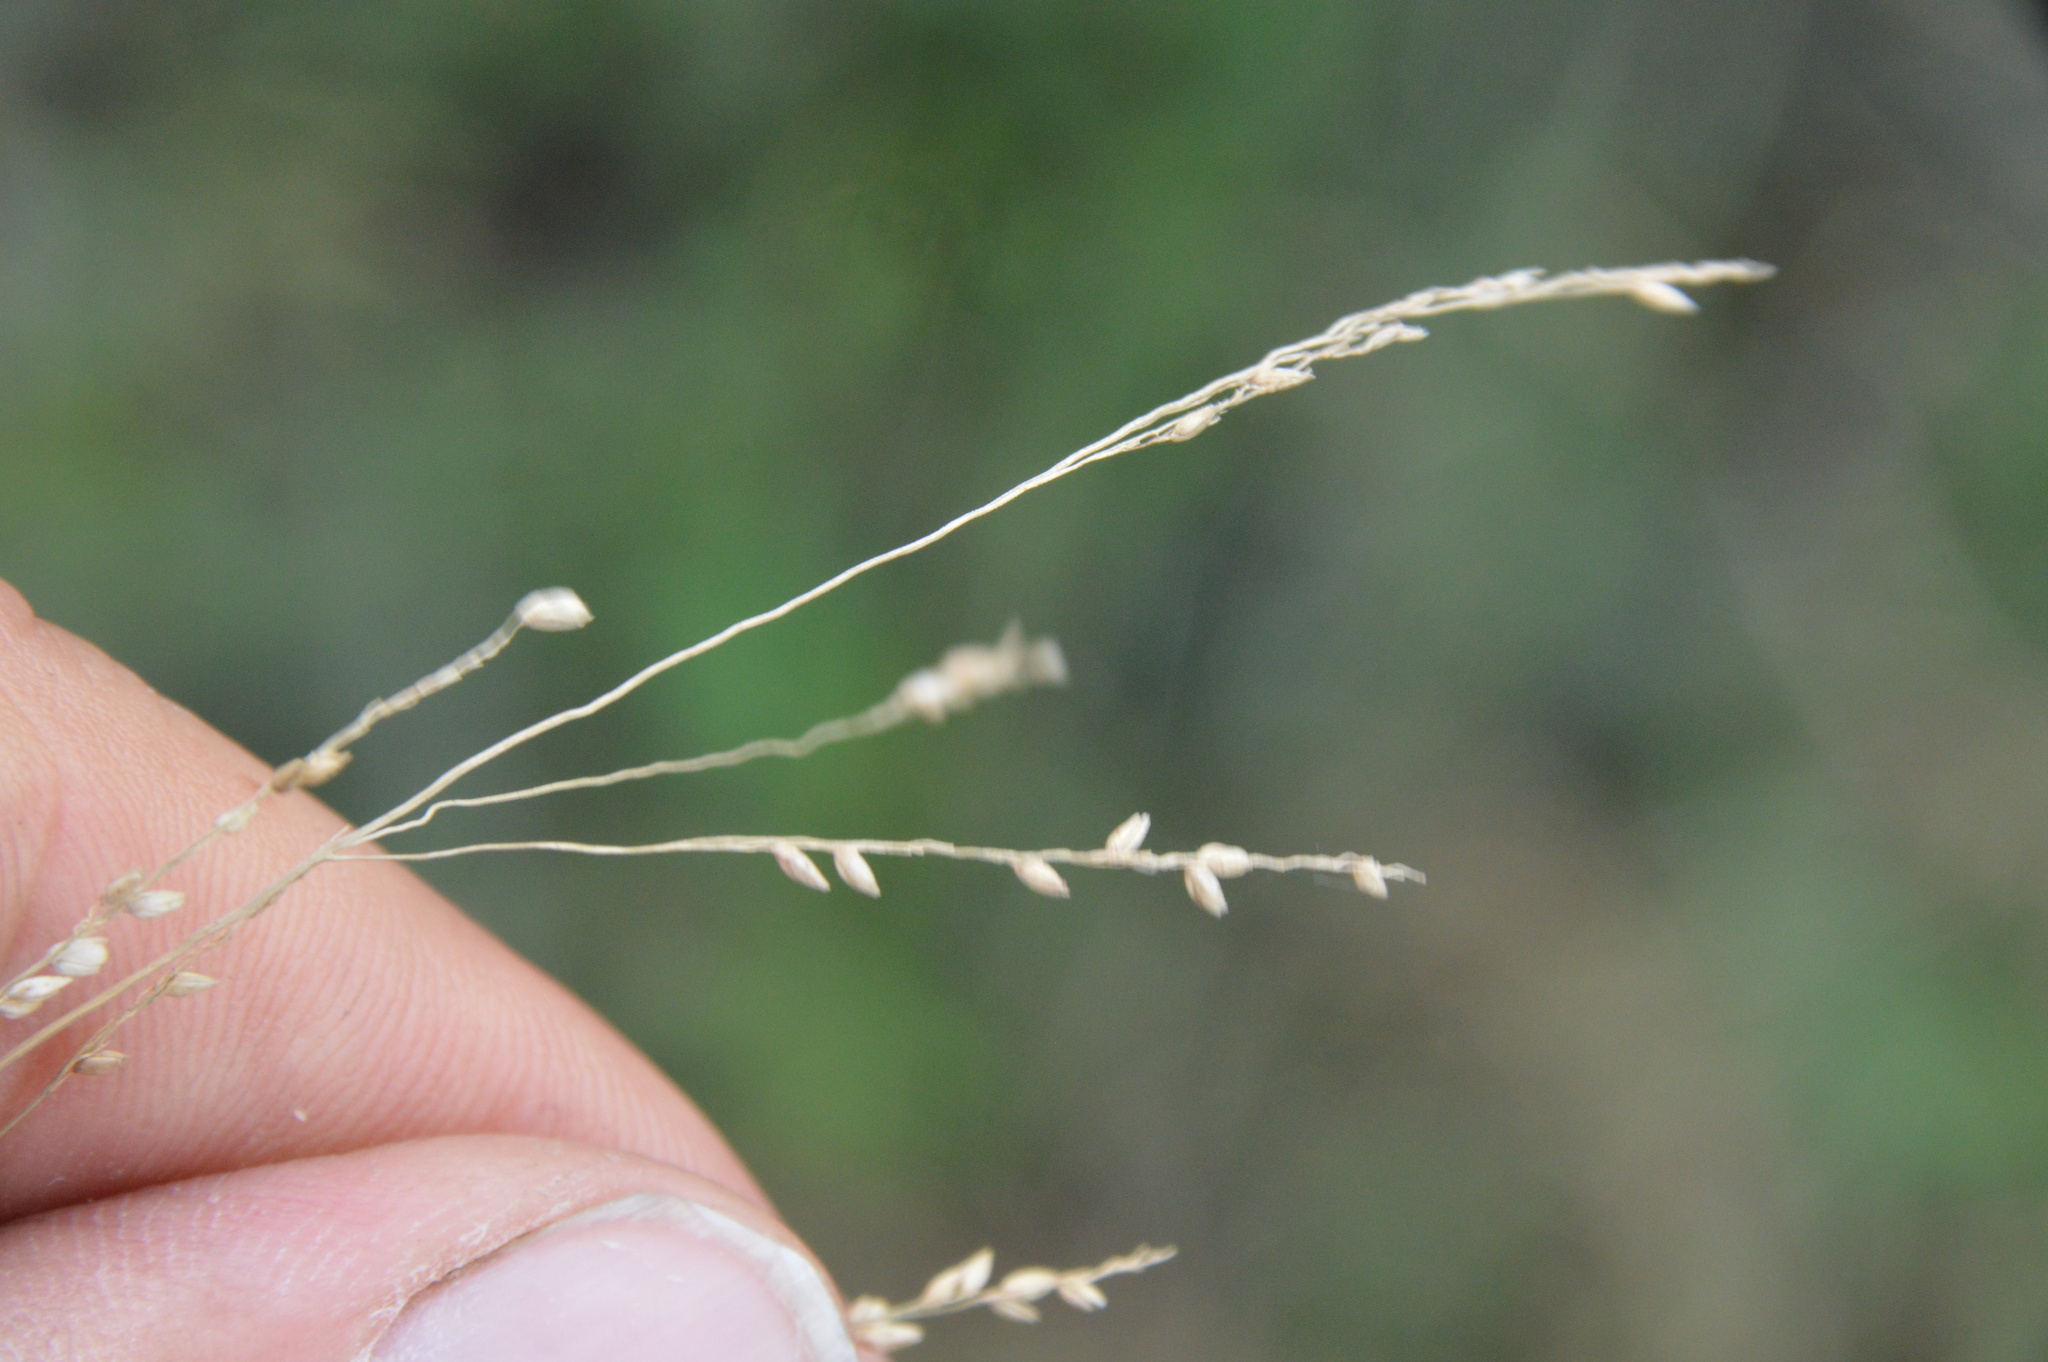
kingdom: Plantae
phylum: Tracheophyta
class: Liliopsida
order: Poales
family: Poaceae
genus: Panicum
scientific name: Panicum dichotomiflorum
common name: Autumn millet
